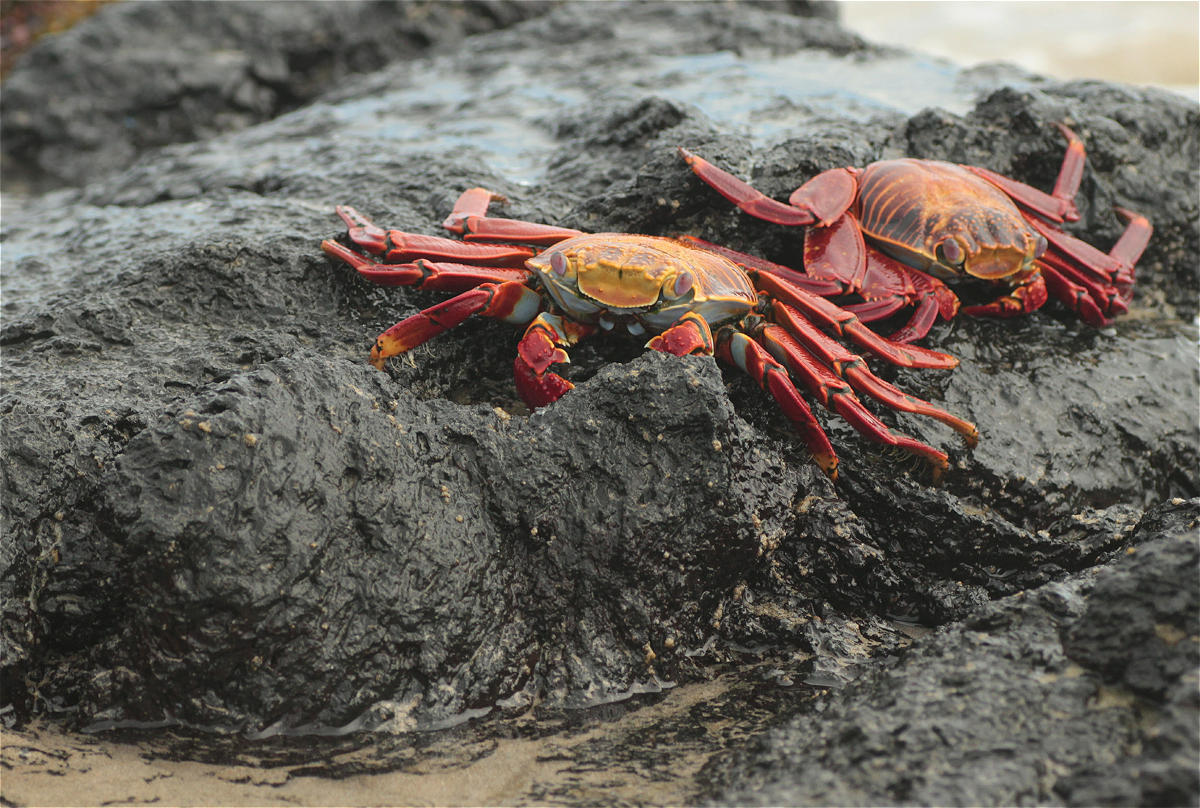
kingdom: Animalia
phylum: Arthropoda
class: Malacostraca
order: Decapoda
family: Grapsidae
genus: Grapsus
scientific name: Grapsus grapsus
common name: Sally lightfoot
